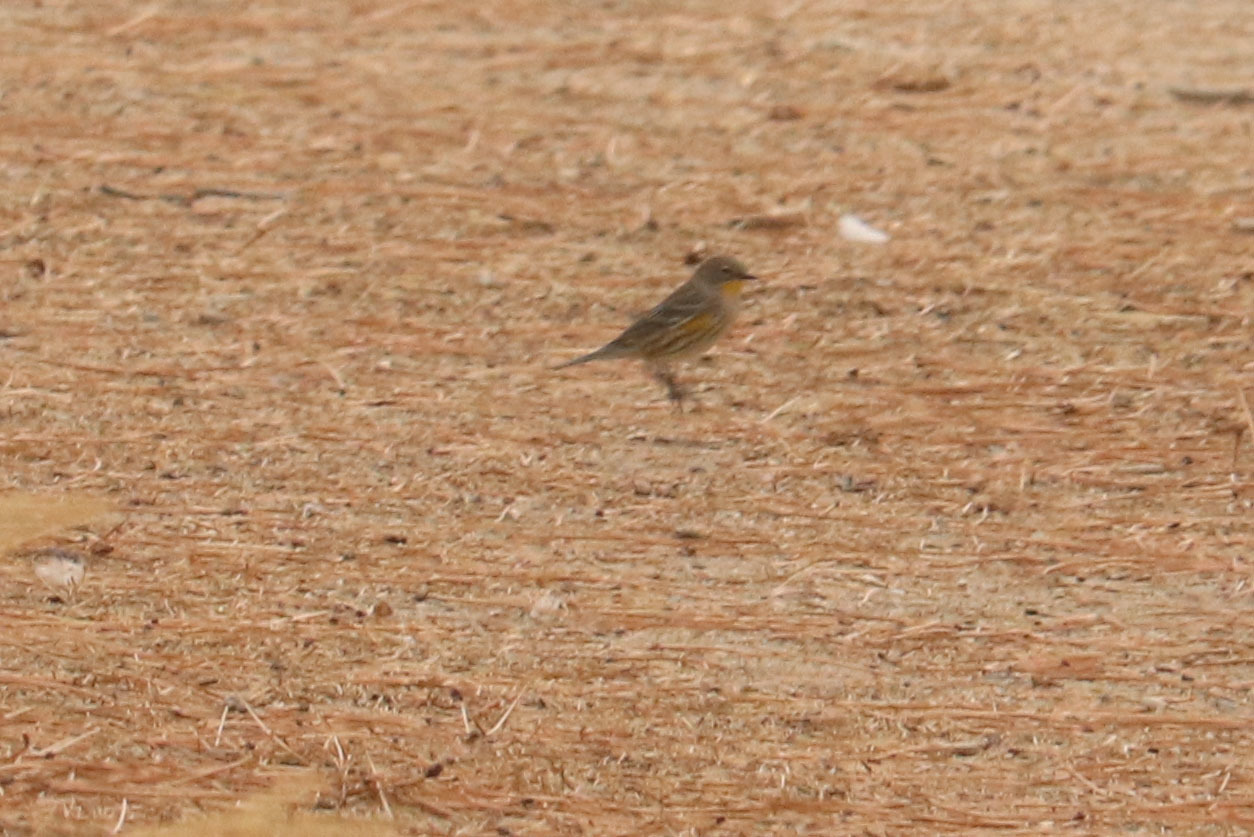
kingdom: Animalia
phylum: Chordata
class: Aves
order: Passeriformes
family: Parulidae
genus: Setophaga
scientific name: Setophaga coronata
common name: Myrtle warbler
